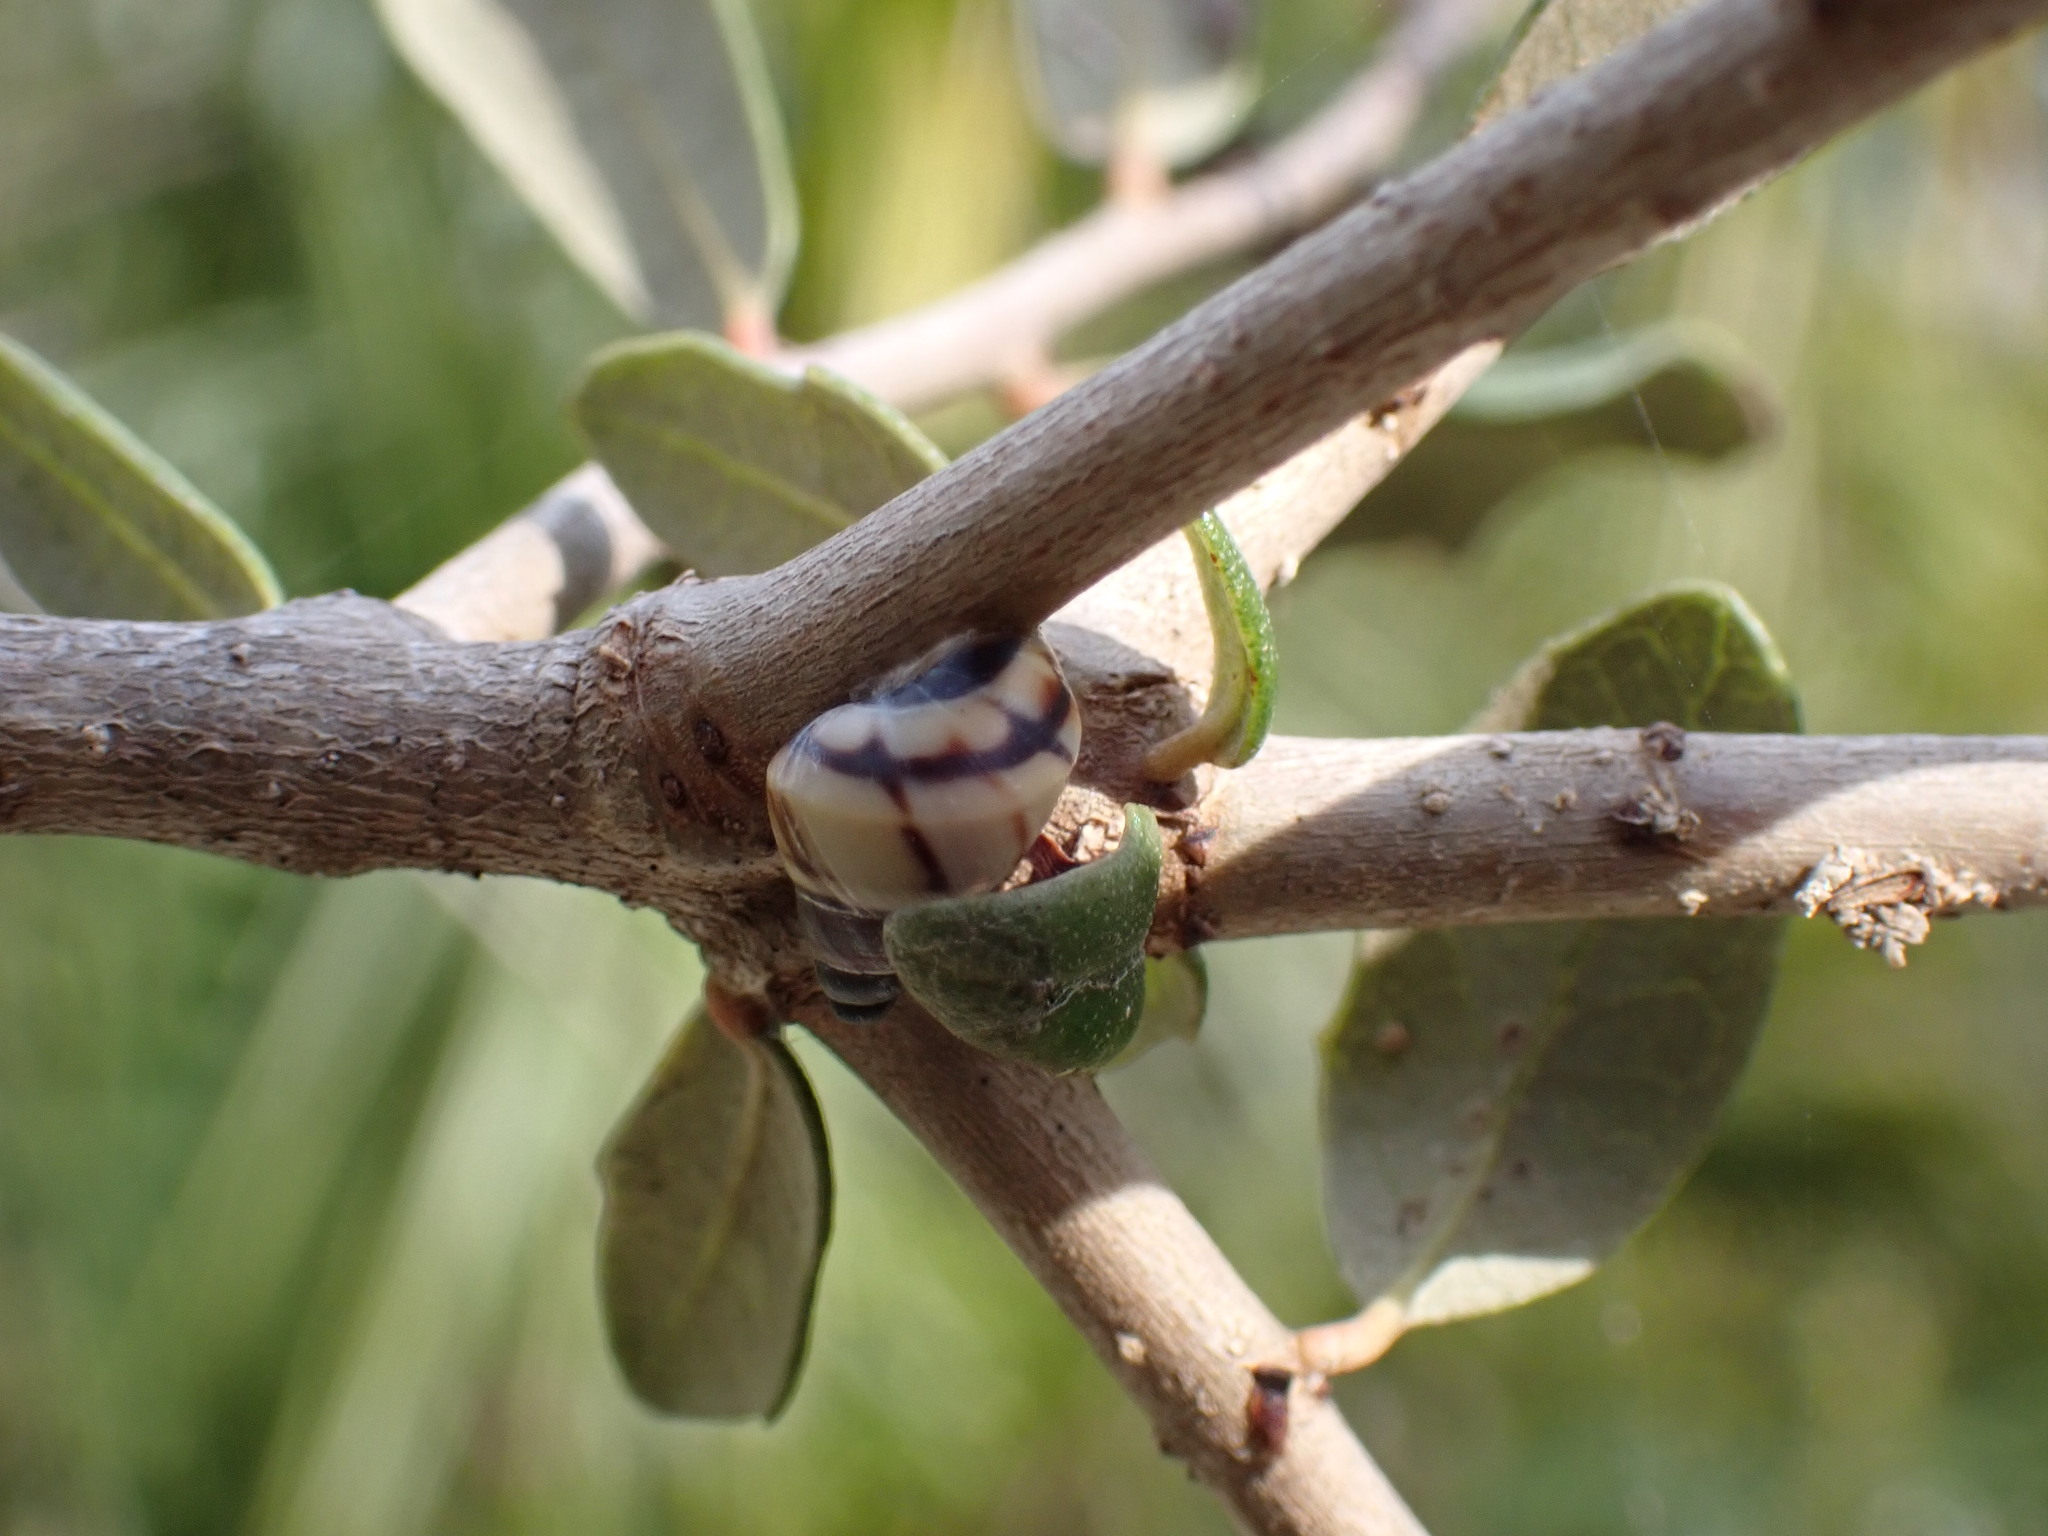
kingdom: Animalia
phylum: Mollusca
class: Gastropoda
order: Stylommatophora
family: Bulimulidae
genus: Drymaeus
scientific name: Drymaeus
